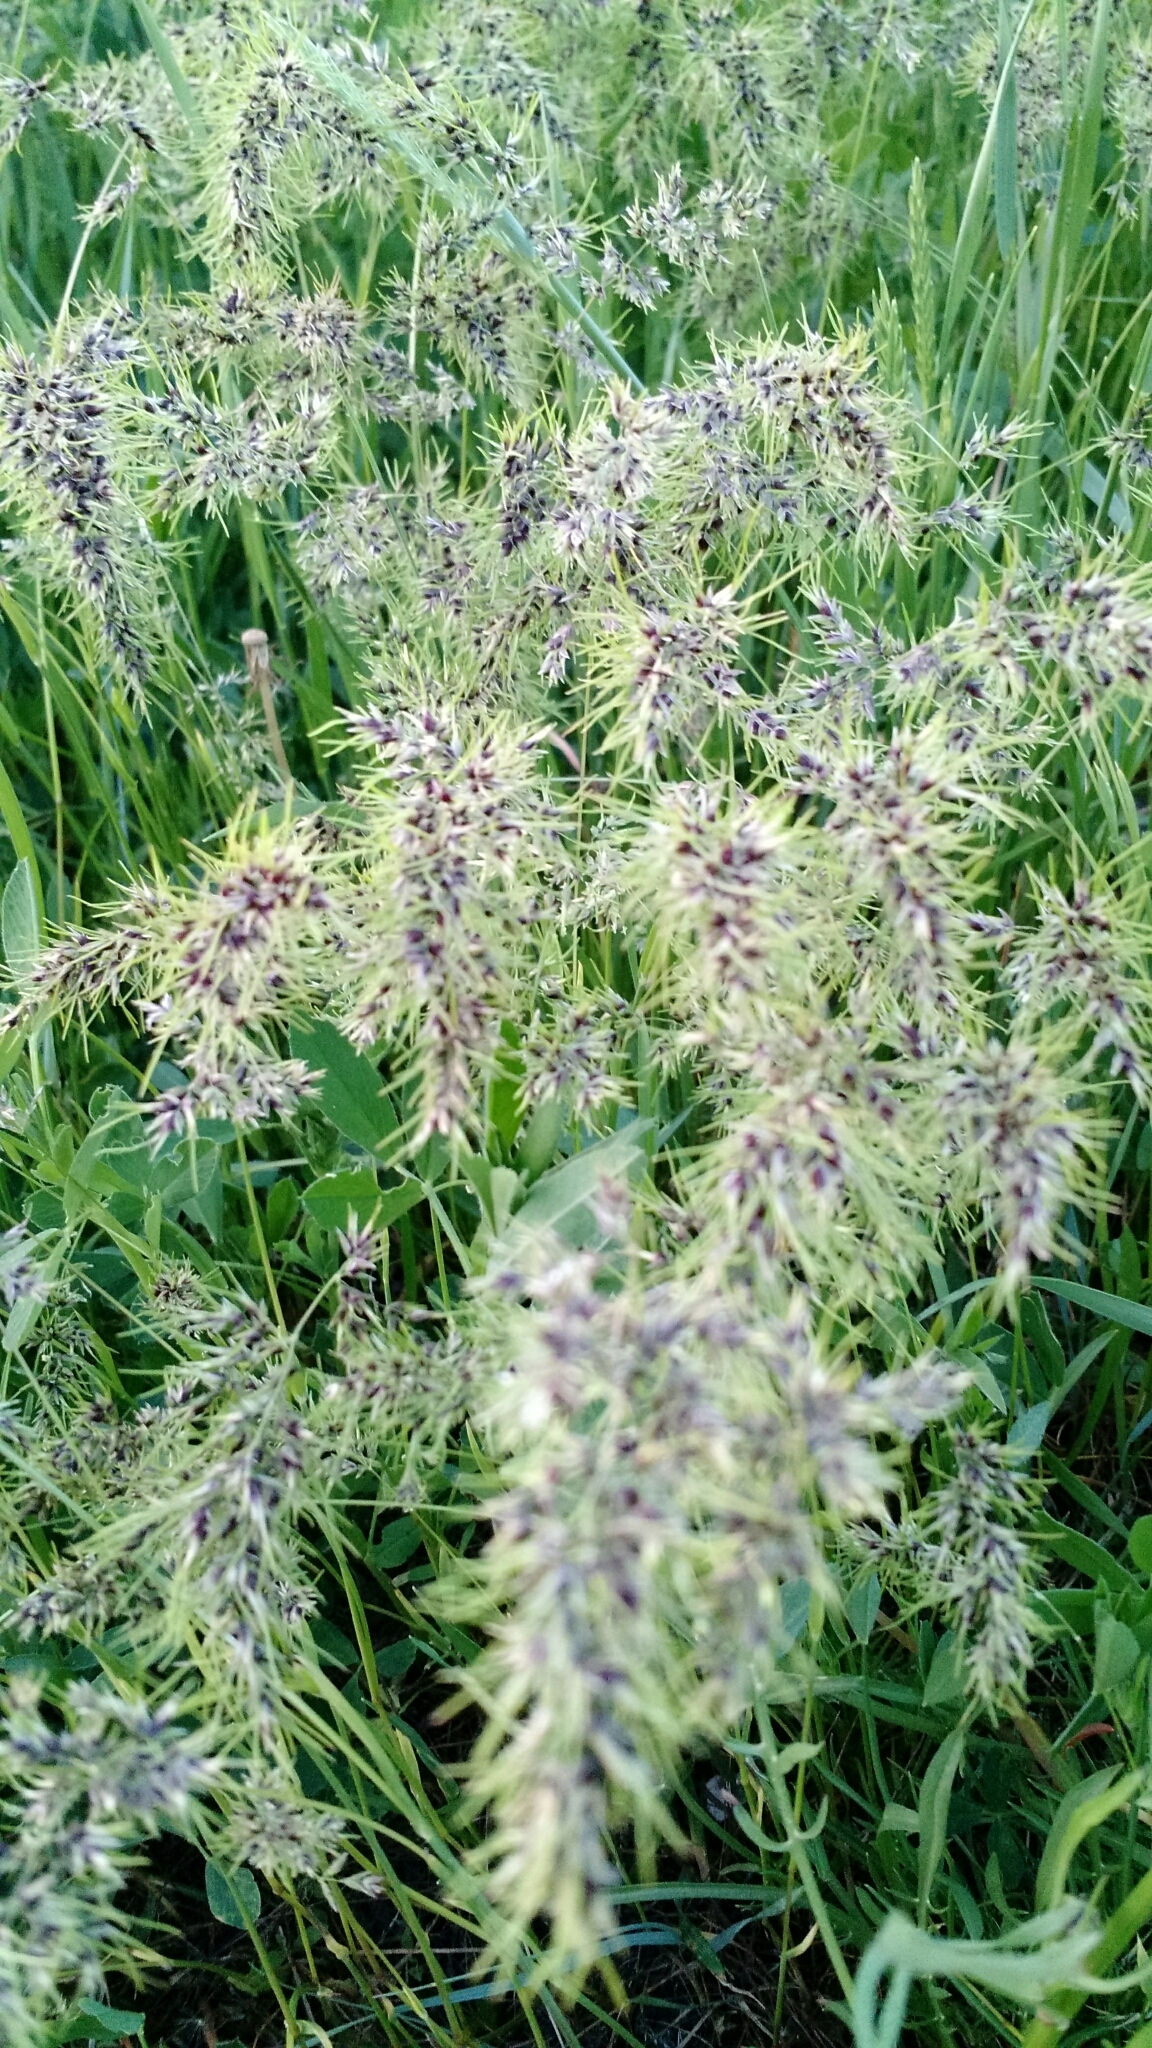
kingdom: Plantae
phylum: Tracheophyta
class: Liliopsida
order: Poales
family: Poaceae
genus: Poa
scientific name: Poa bulbosa
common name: Bulbous bluegrass
